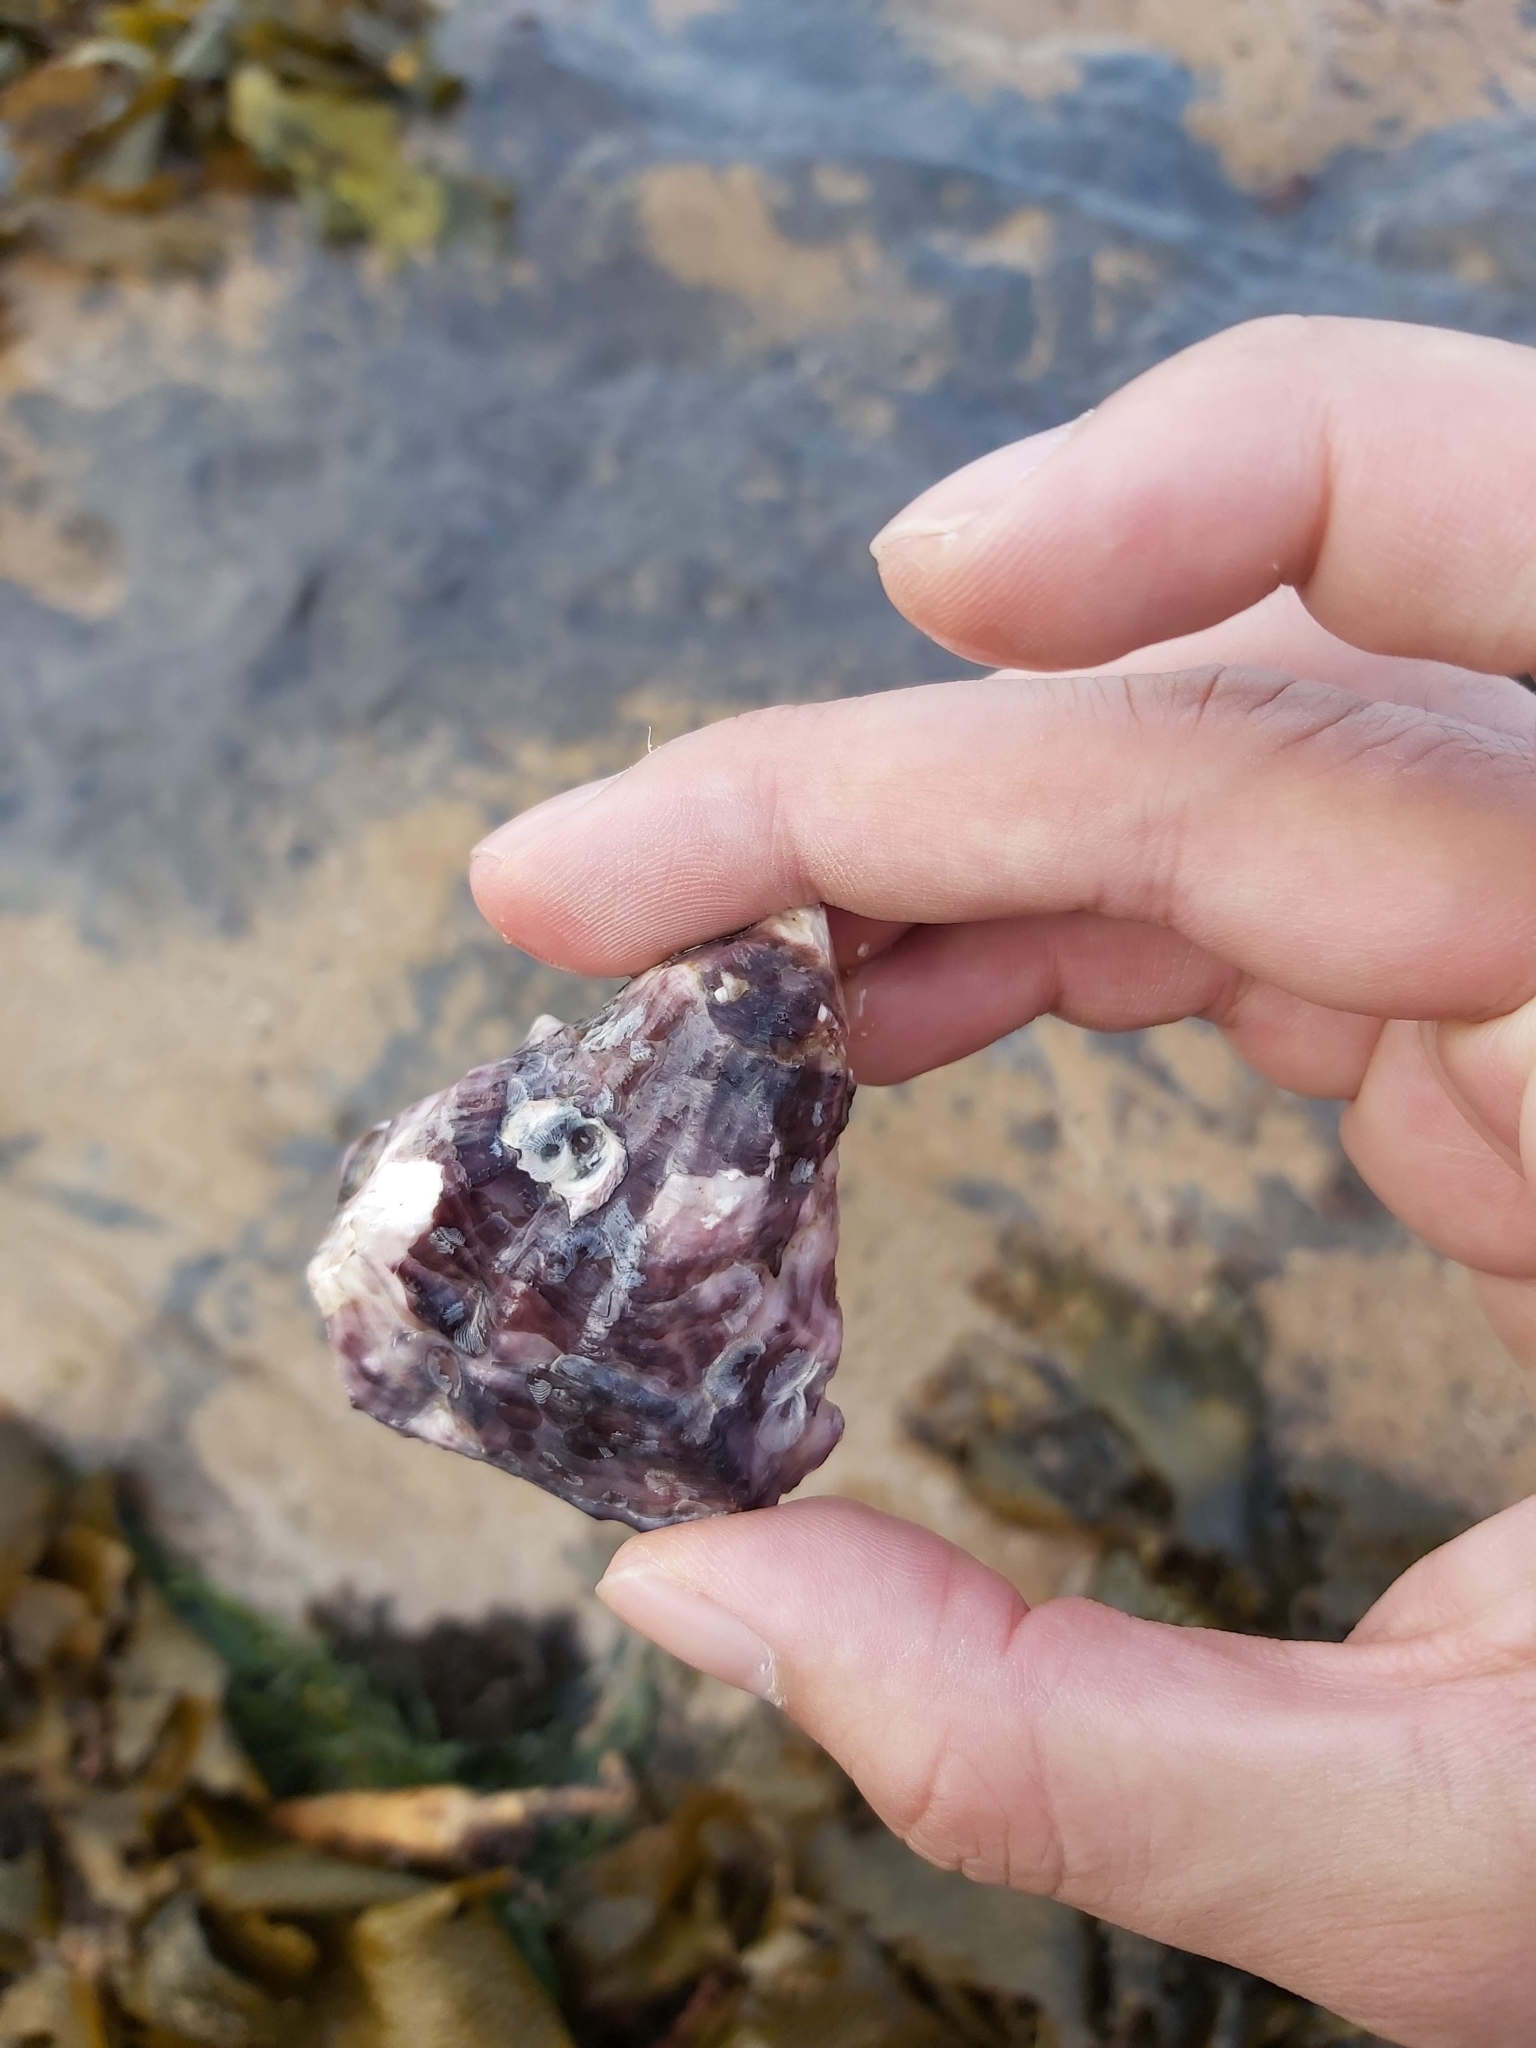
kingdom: Animalia
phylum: Mollusca
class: Bivalvia
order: Ostreida
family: Ostreidae
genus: Saccostrea
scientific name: Saccostrea glomerata
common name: Sydney cupped oyster
